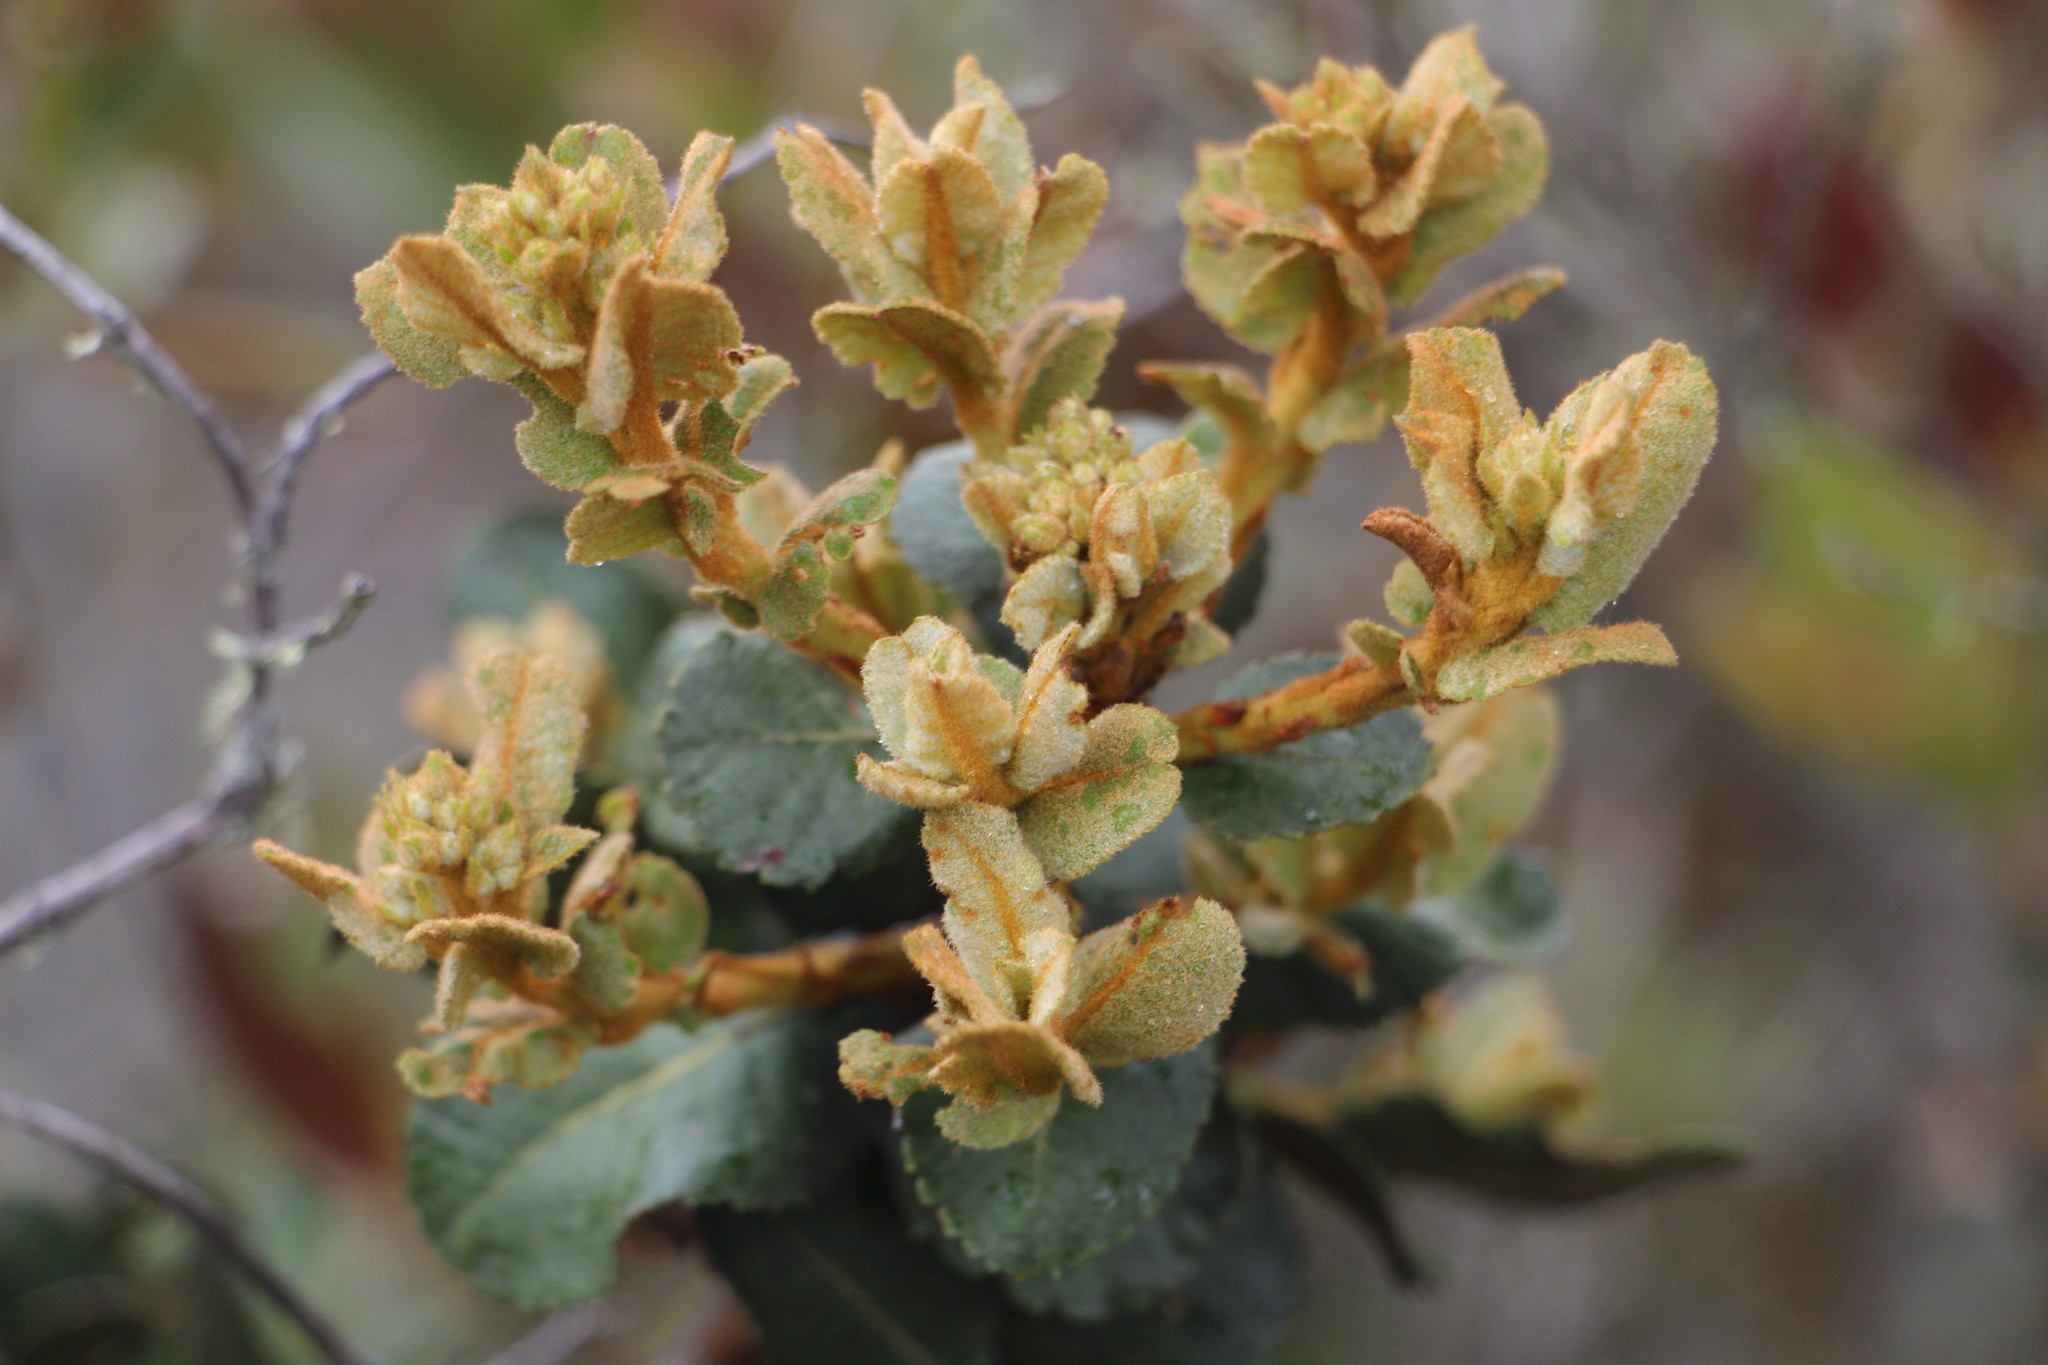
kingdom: Plantae
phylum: Tracheophyta
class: Magnoliopsida
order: Rosales
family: Rosaceae
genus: Hesperomeles
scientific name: Hesperomeles goudotiana
